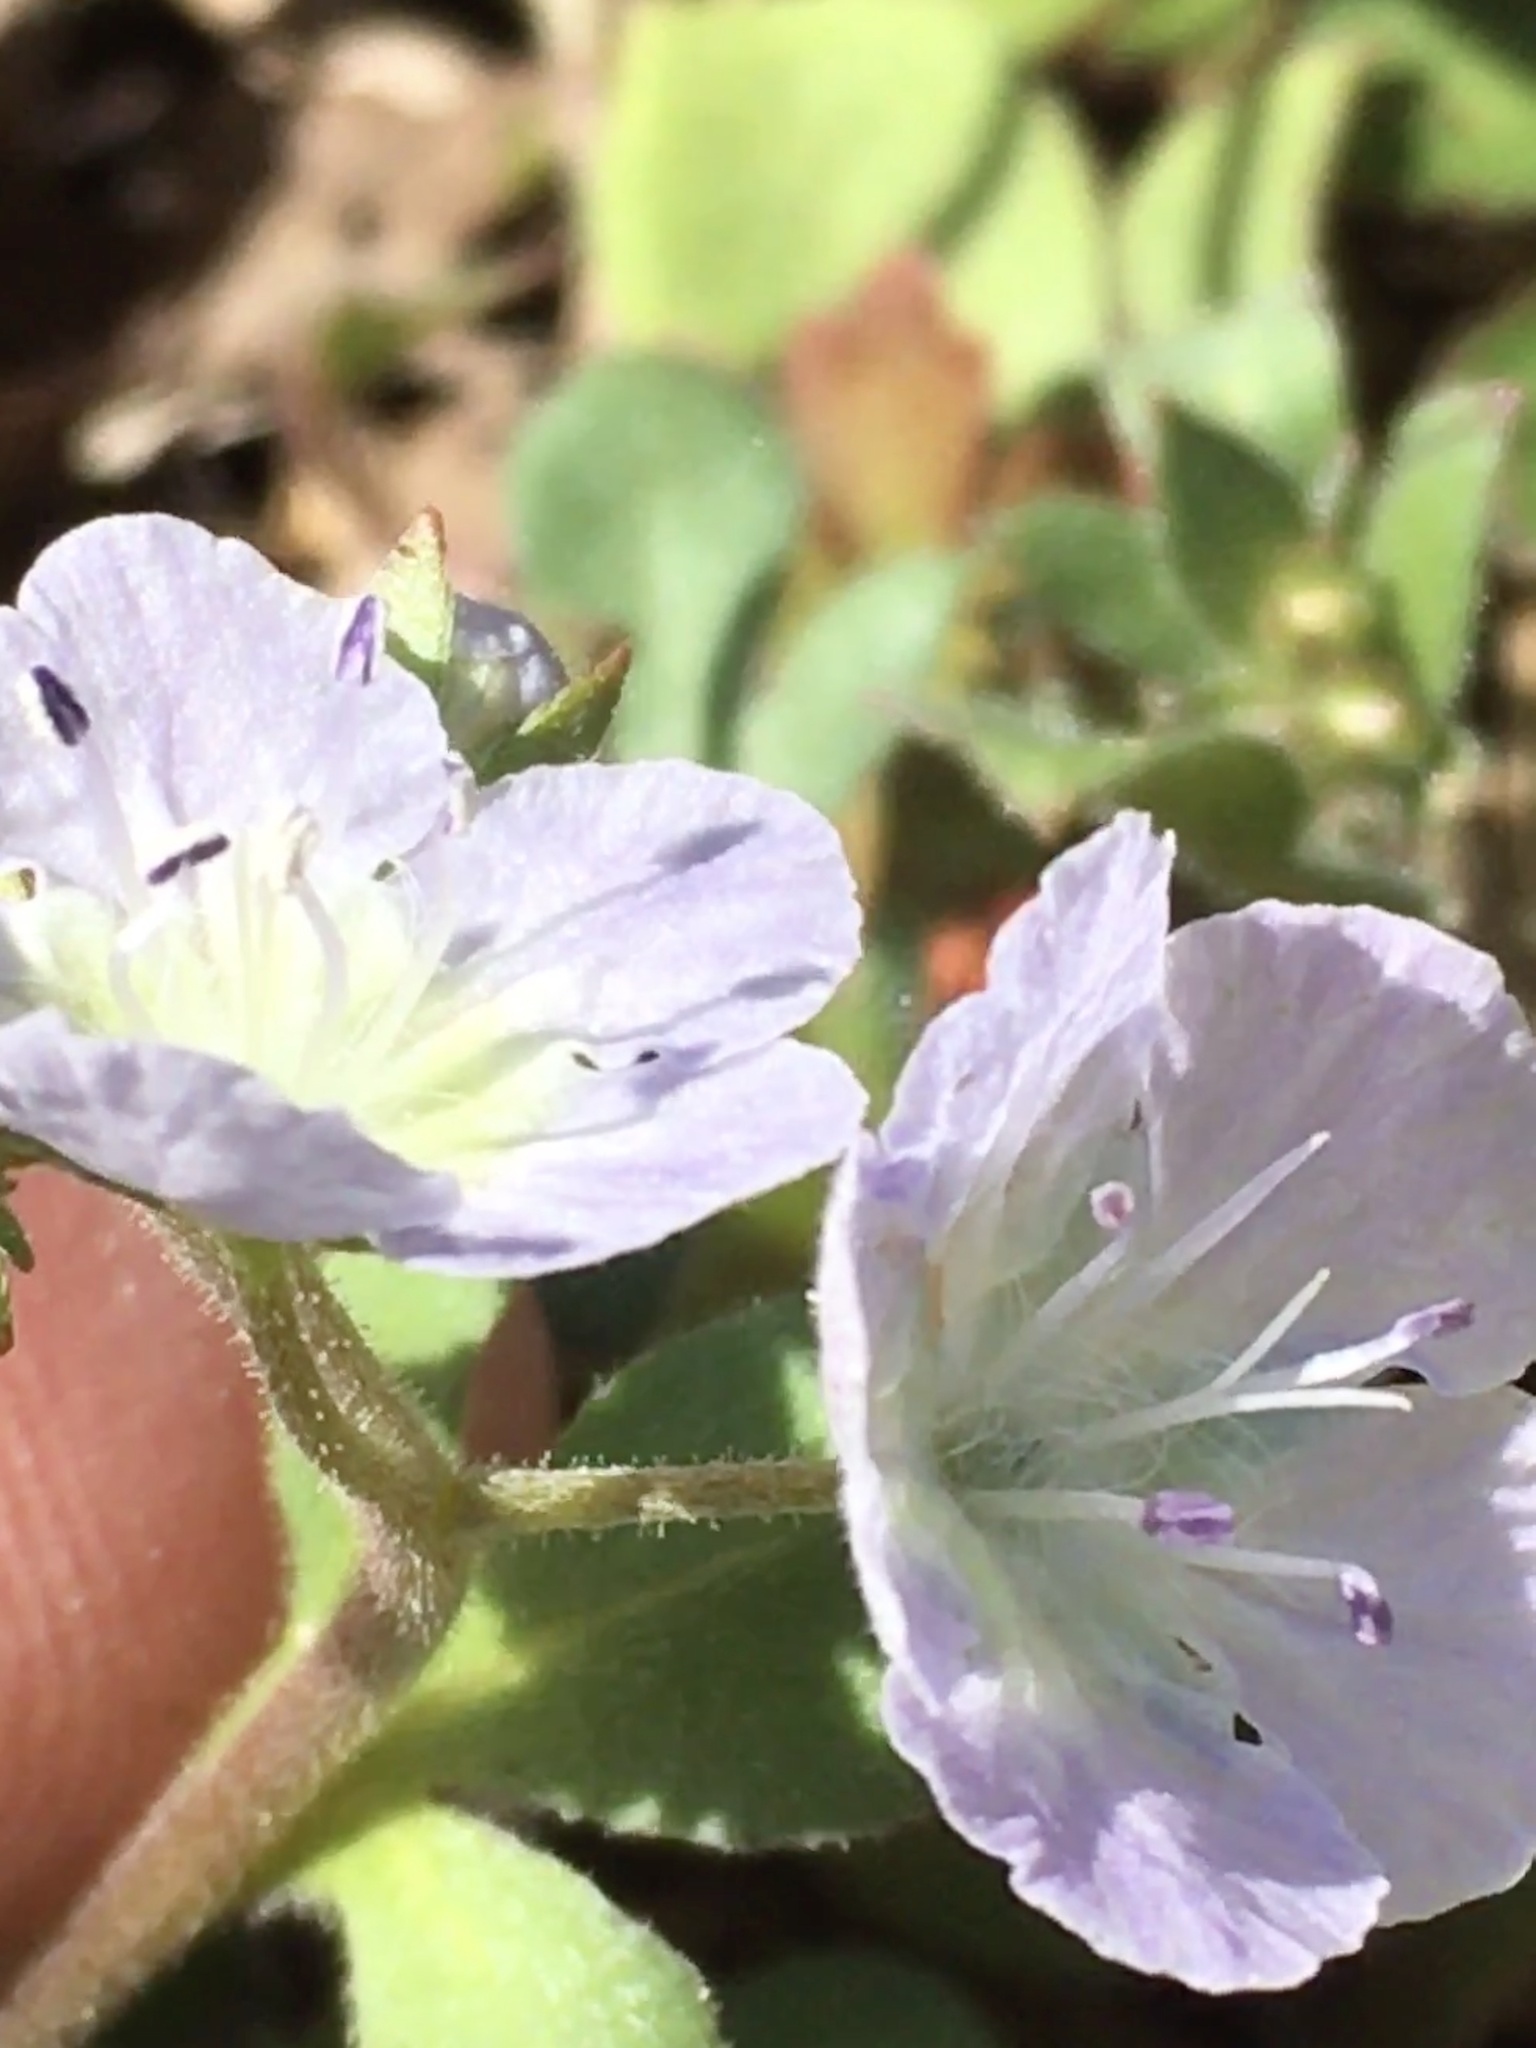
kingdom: Plantae
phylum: Tracheophyta
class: Magnoliopsida
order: Boraginales
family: Hydrophyllaceae
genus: Phacelia
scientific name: Phacelia dubia
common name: Appalachian phacelia
